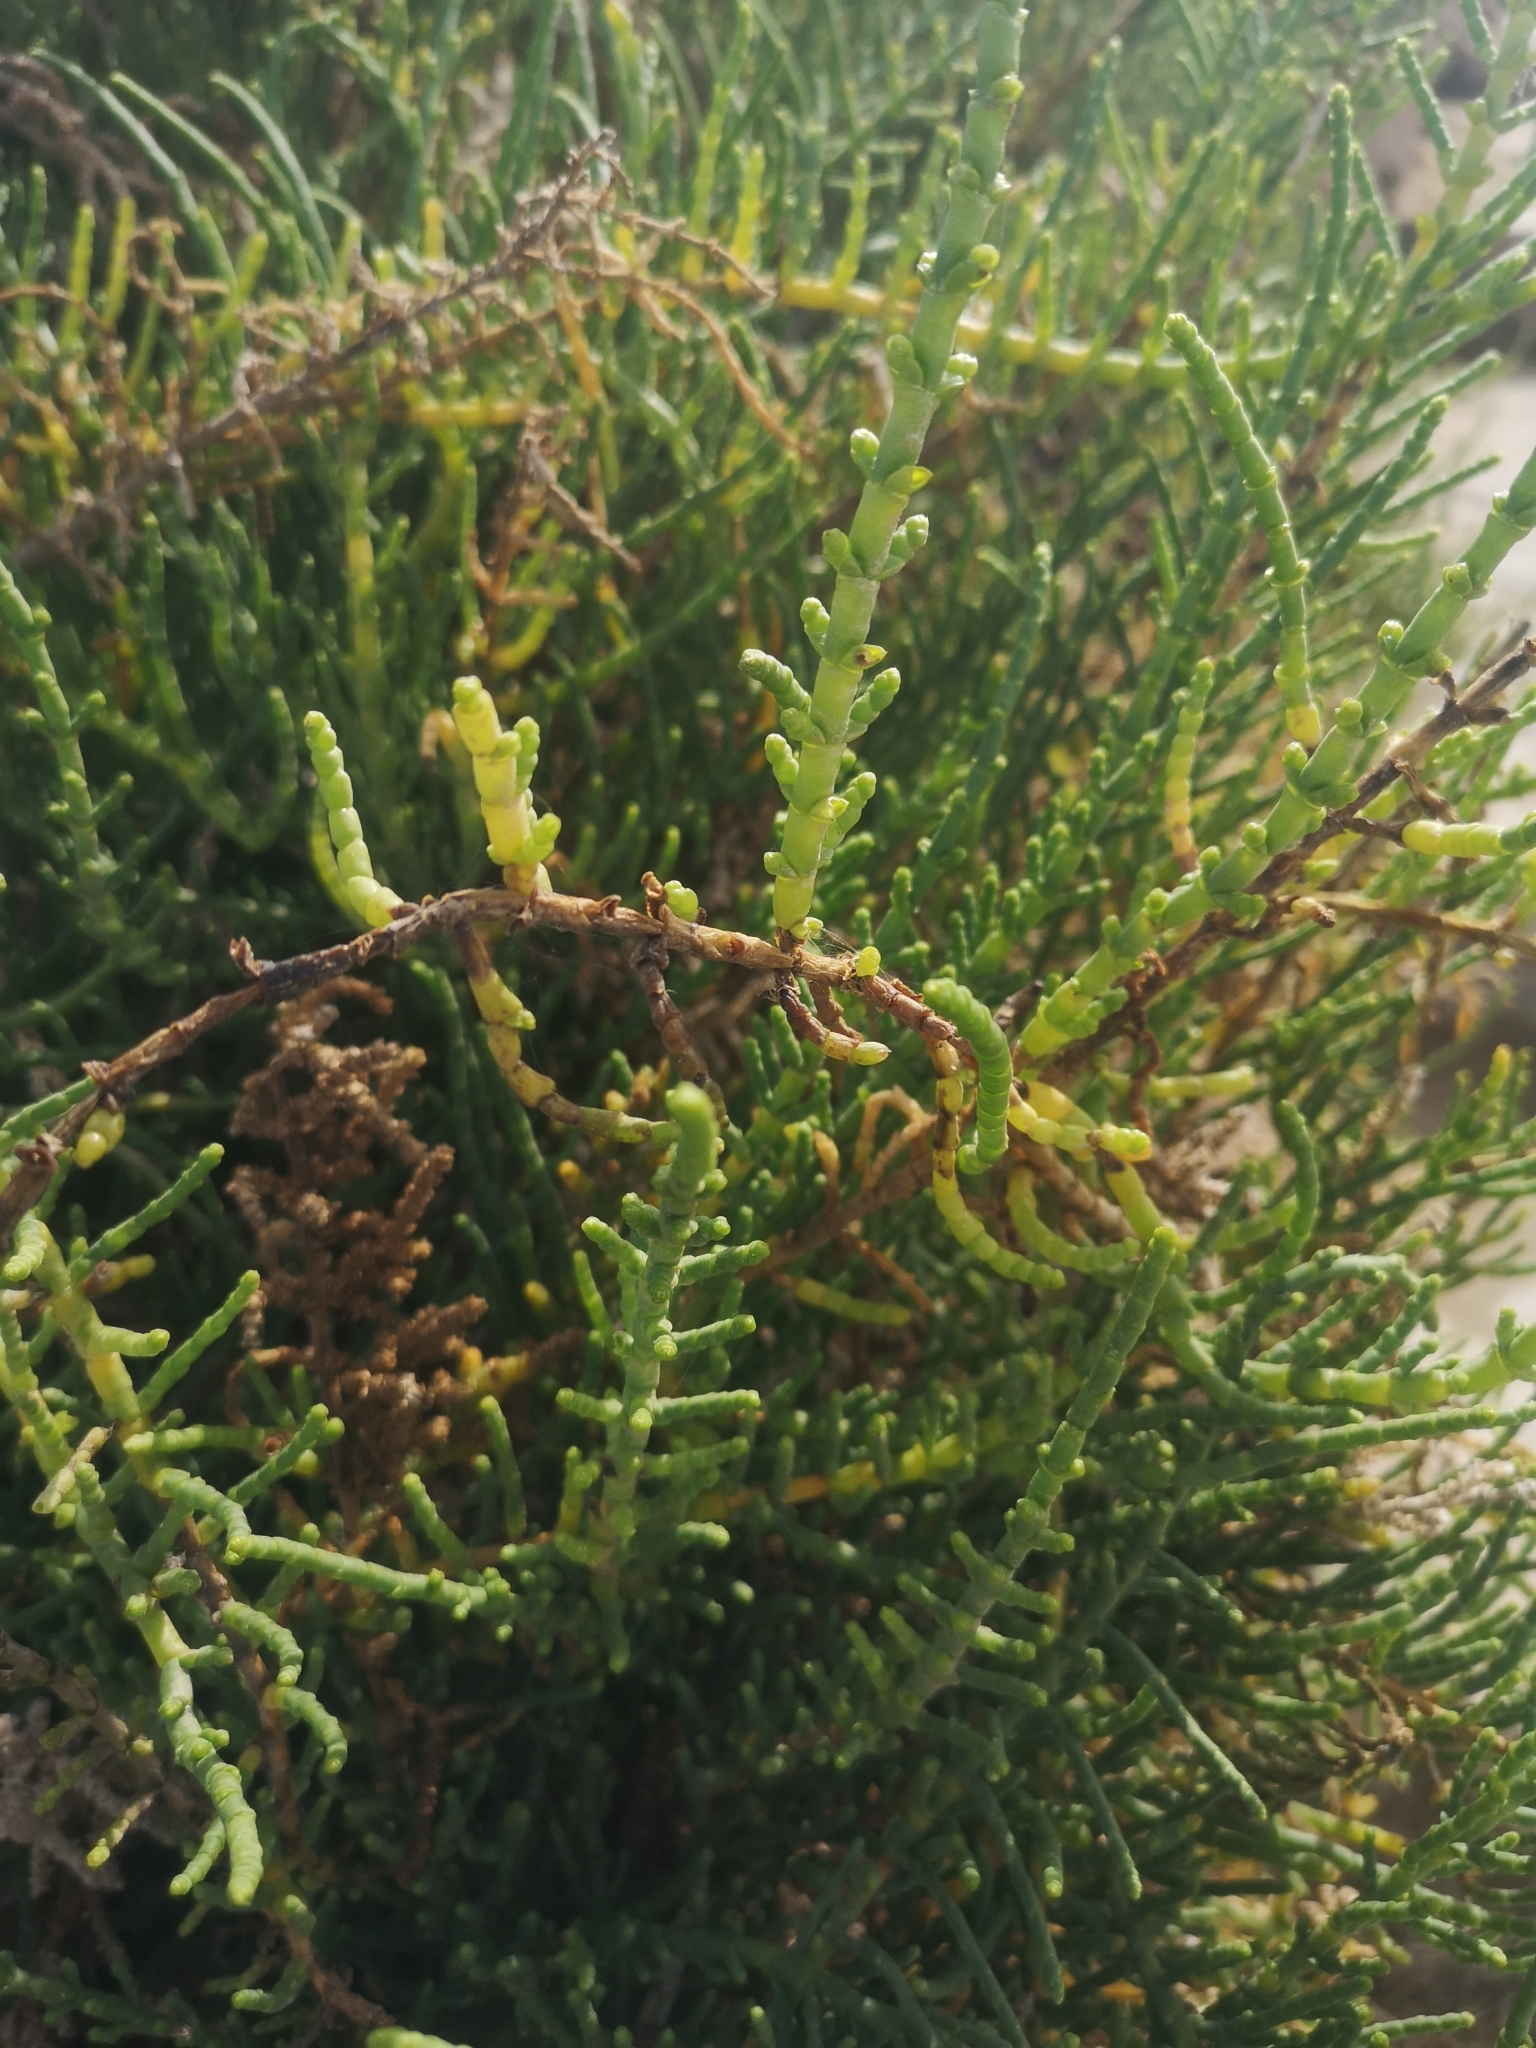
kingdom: Plantae
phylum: Tracheophyta
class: Magnoliopsida
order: Caryophyllales
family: Amaranthaceae
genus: Arthrocaulon
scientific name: Arthrocaulon macrostachyum
